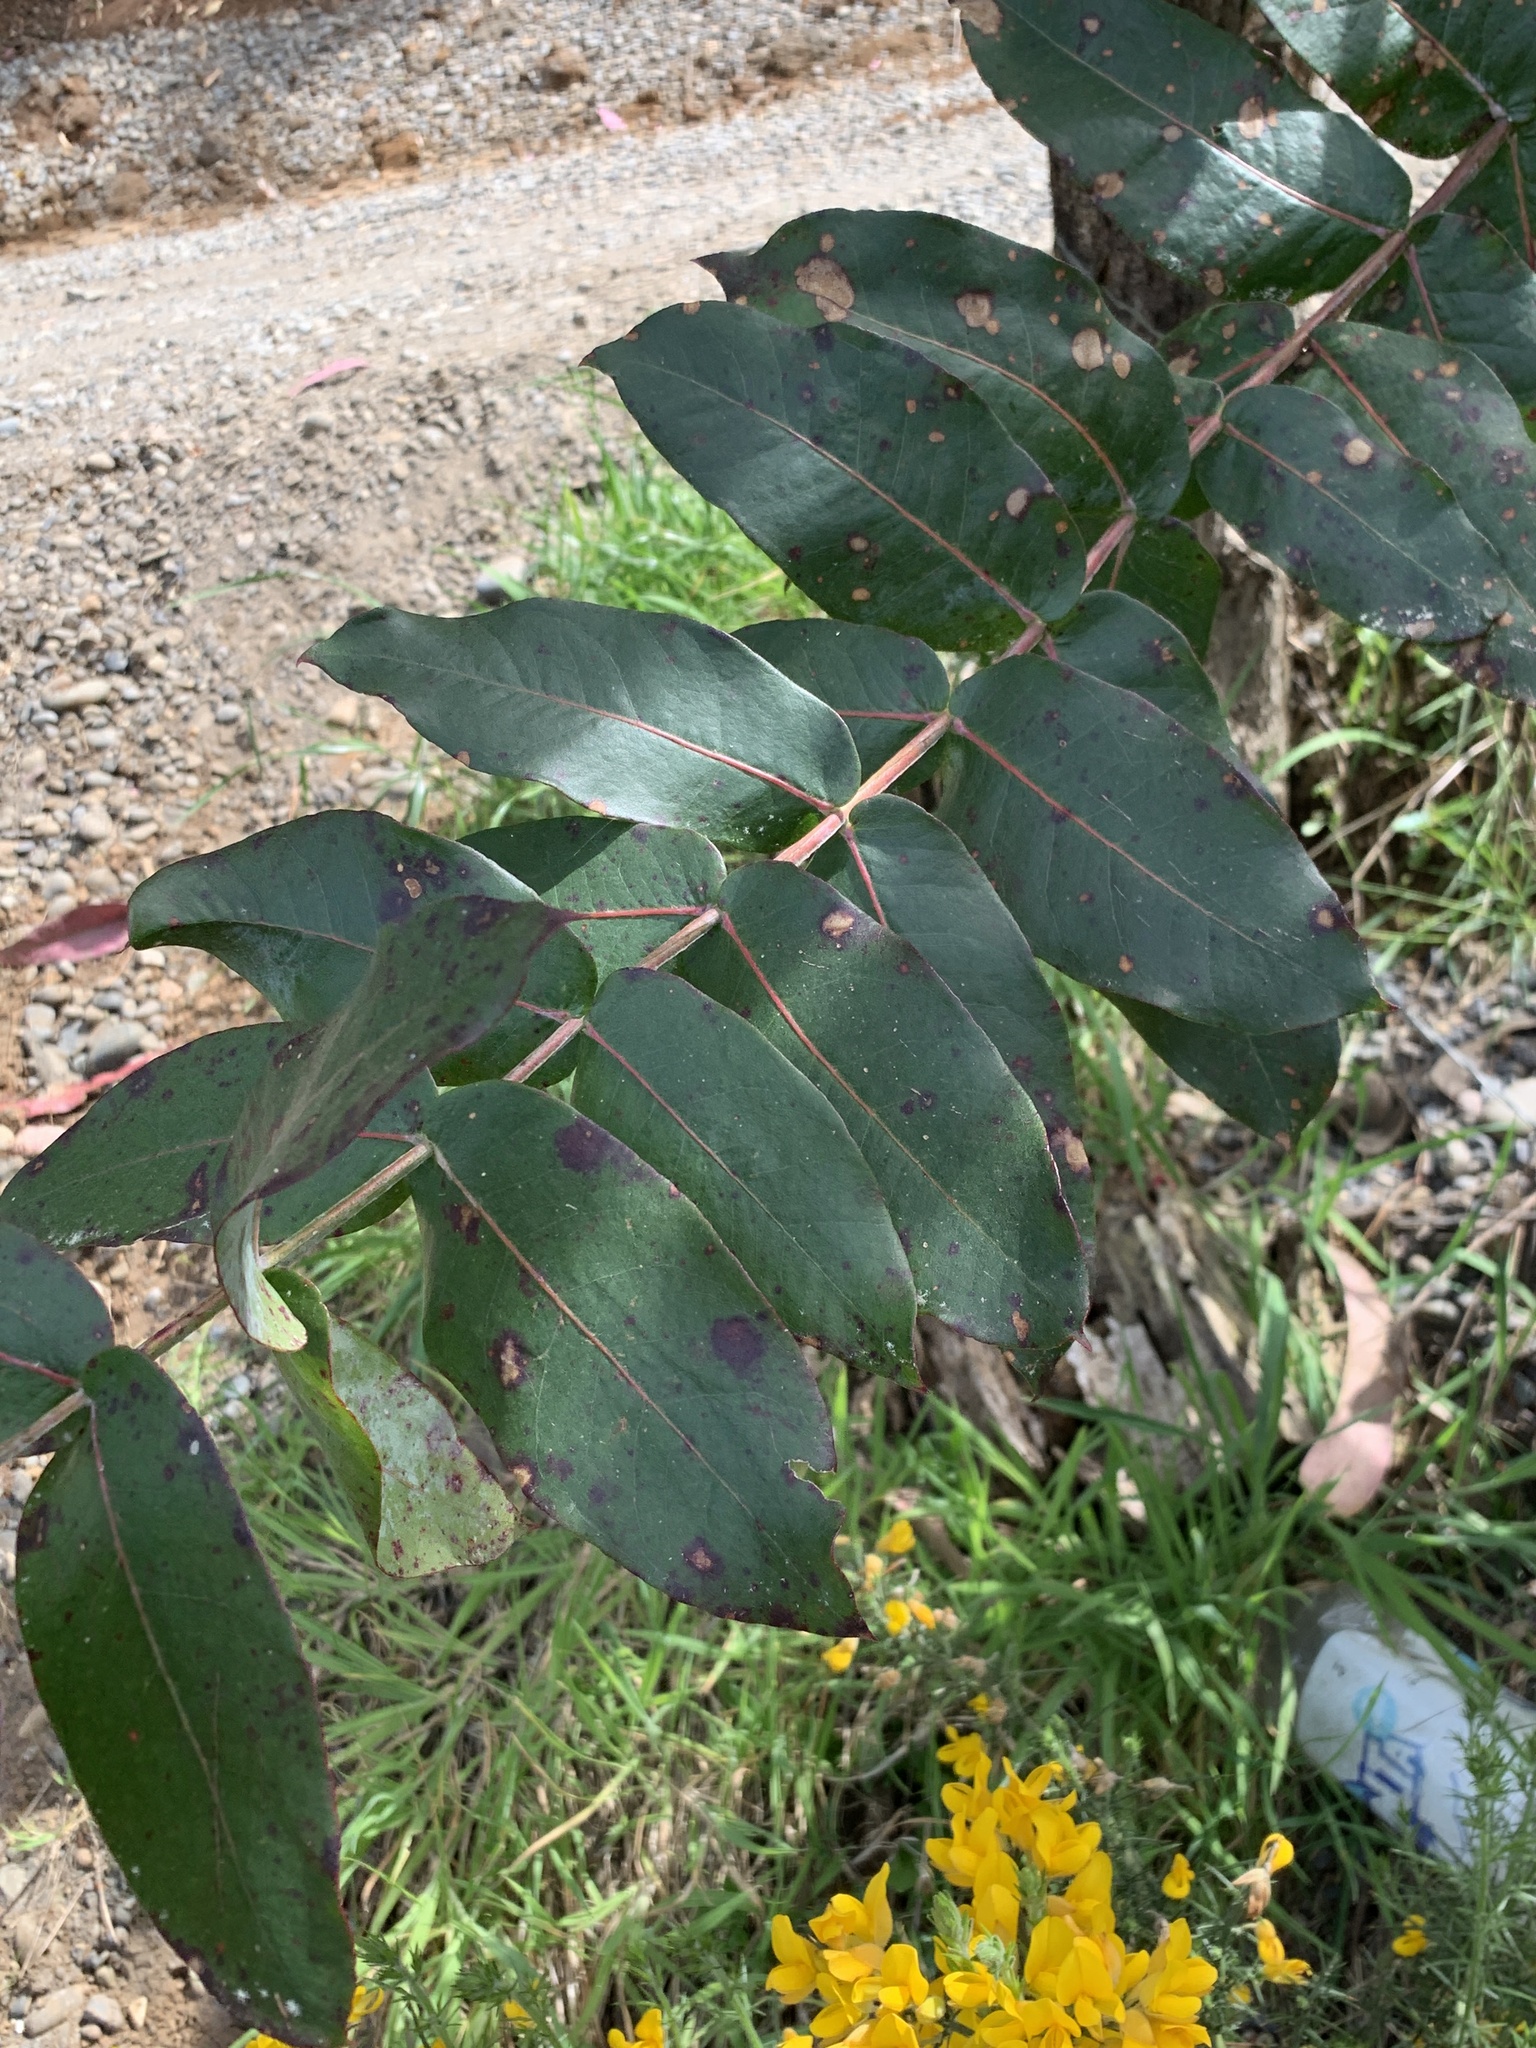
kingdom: Plantae
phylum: Tracheophyta
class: Magnoliopsida
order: Myrtales
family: Myrtaceae
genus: Eucalyptus
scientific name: Eucalyptus globulus
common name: Southern blue-gum
